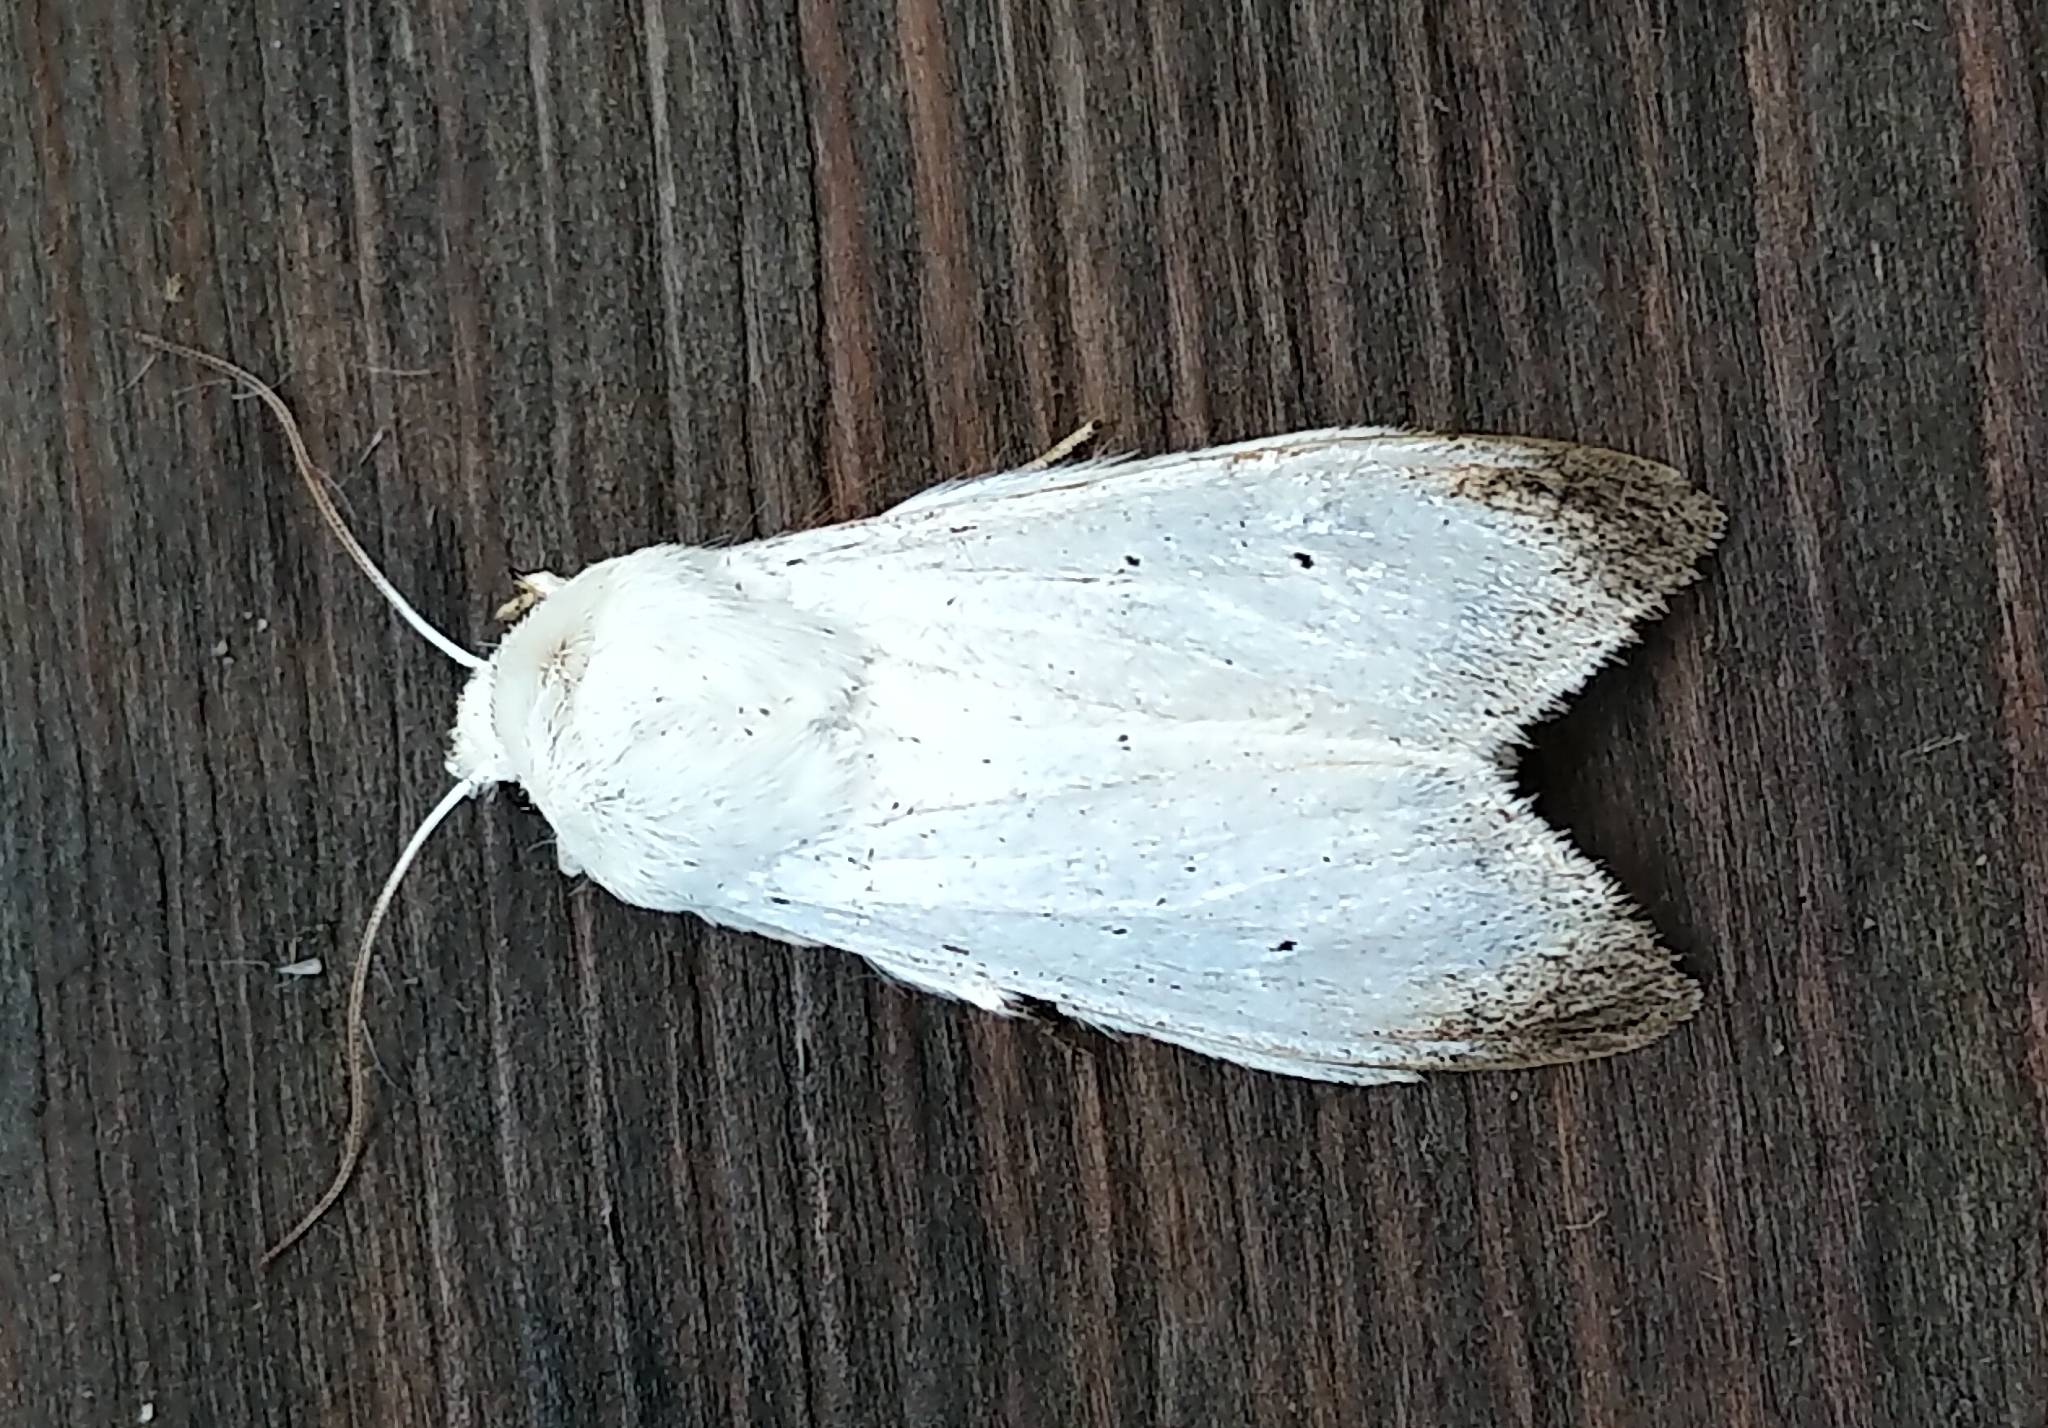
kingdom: Animalia
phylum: Arthropoda
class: Insecta
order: Lepidoptera
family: Noctuidae
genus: Cucullia
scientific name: Cucullia luna
